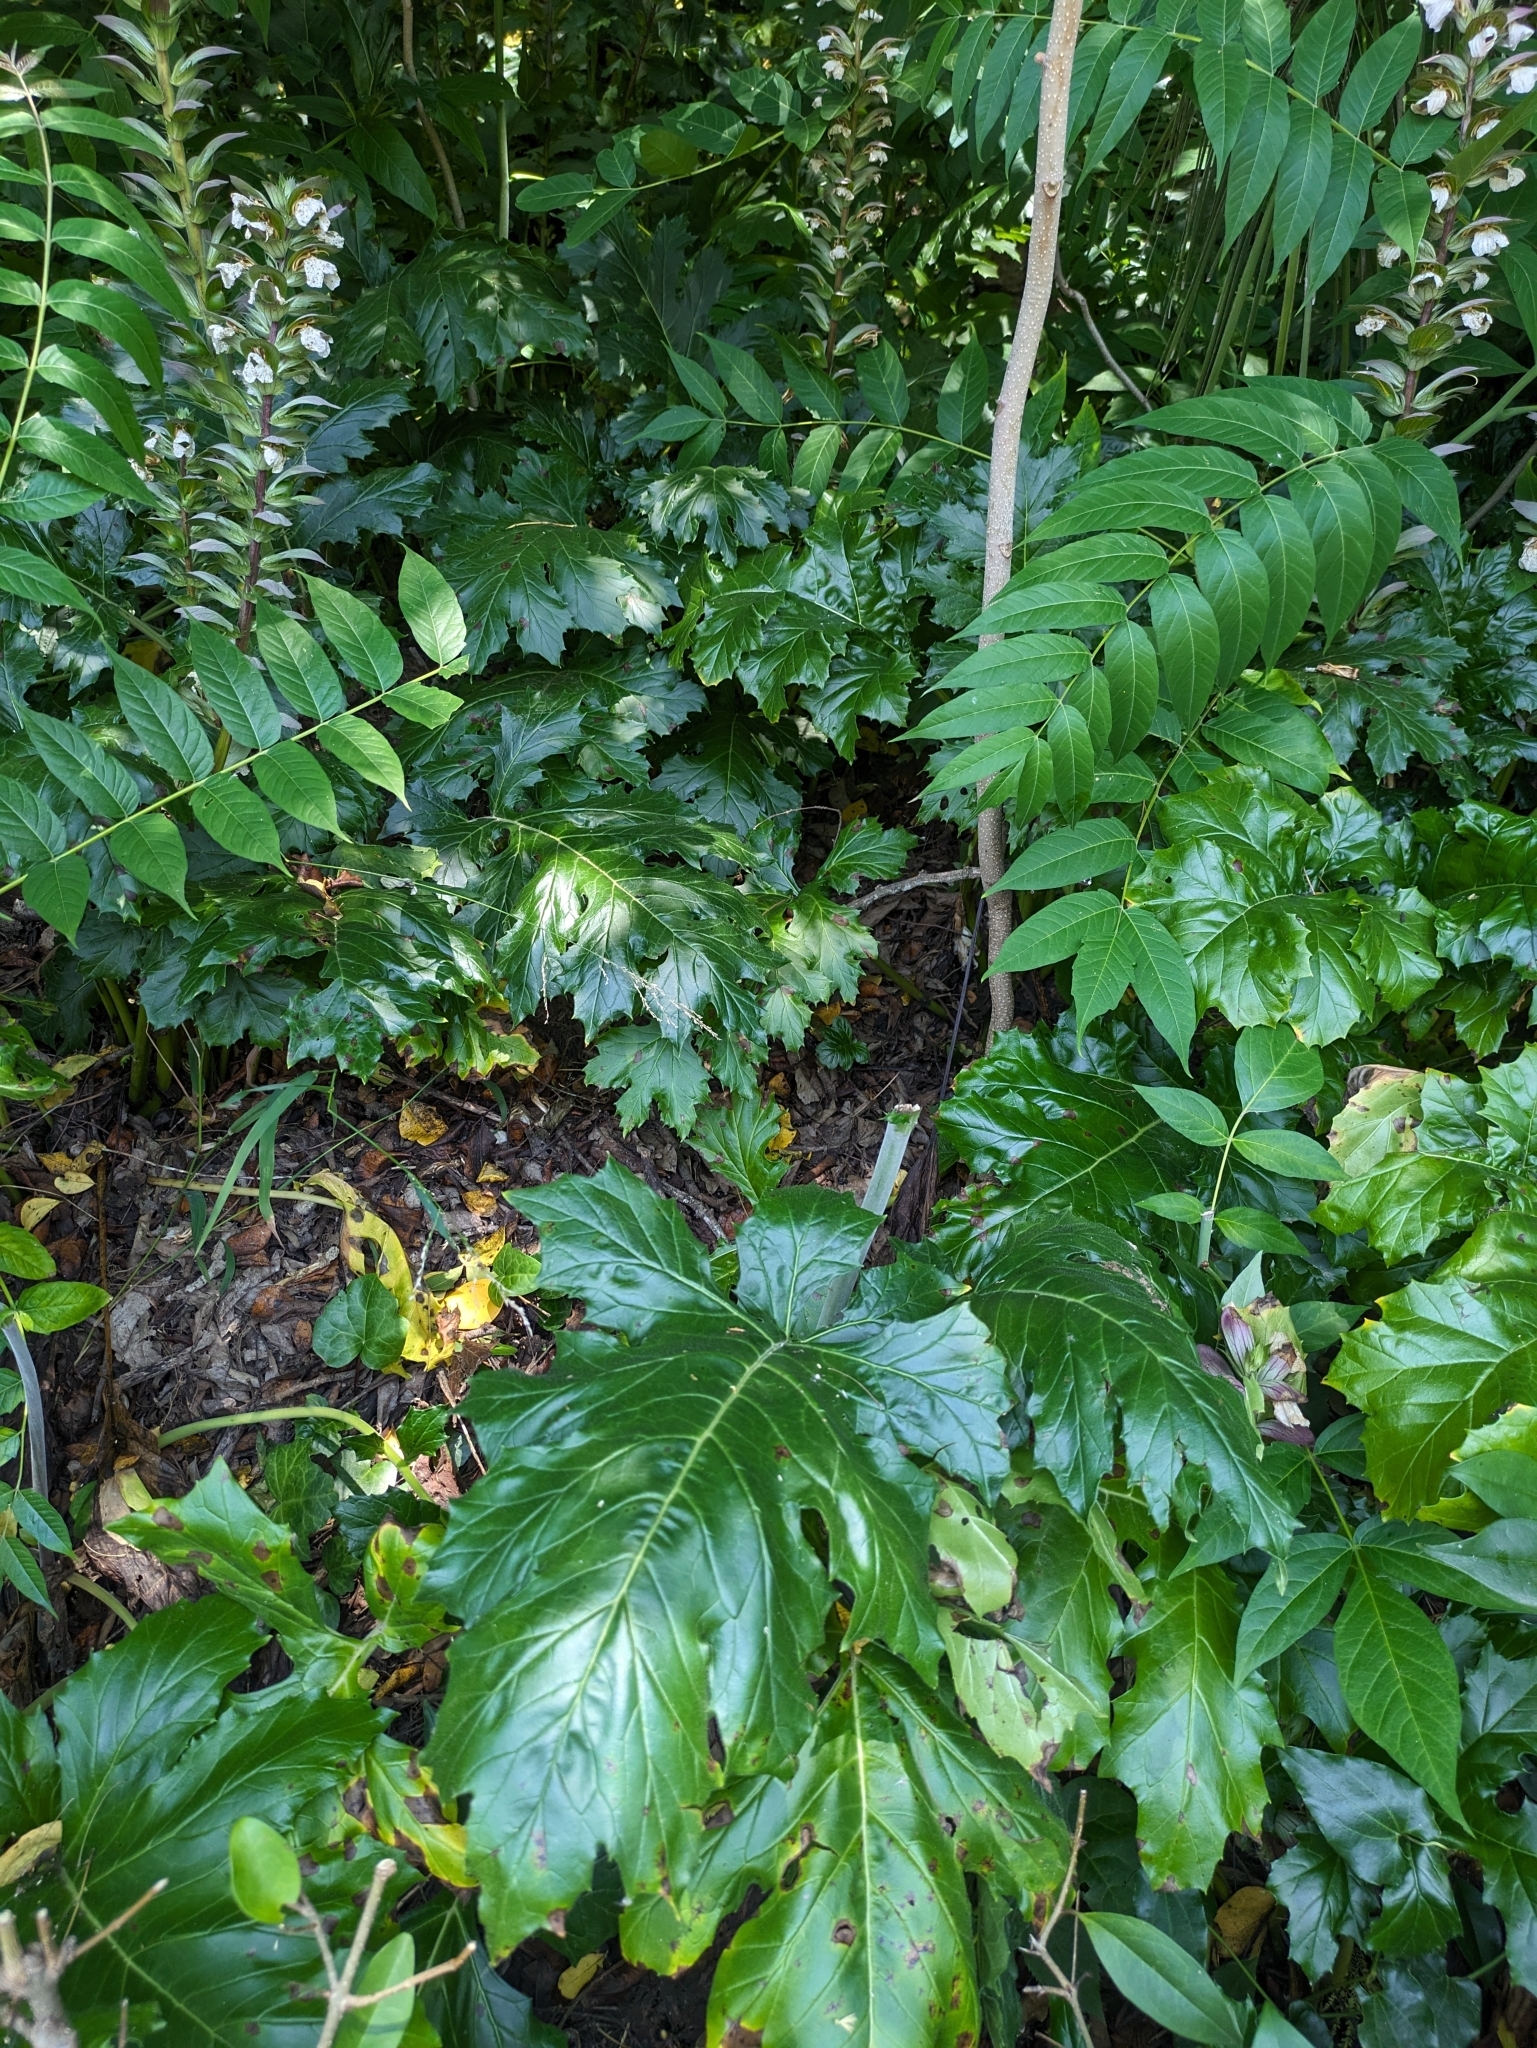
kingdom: Plantae
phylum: Tracheophyta
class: Magnoliopsida
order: Lamiales
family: Acanthaceae
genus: Acanthus
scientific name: Acanthus mollis
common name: Bear's-breech
